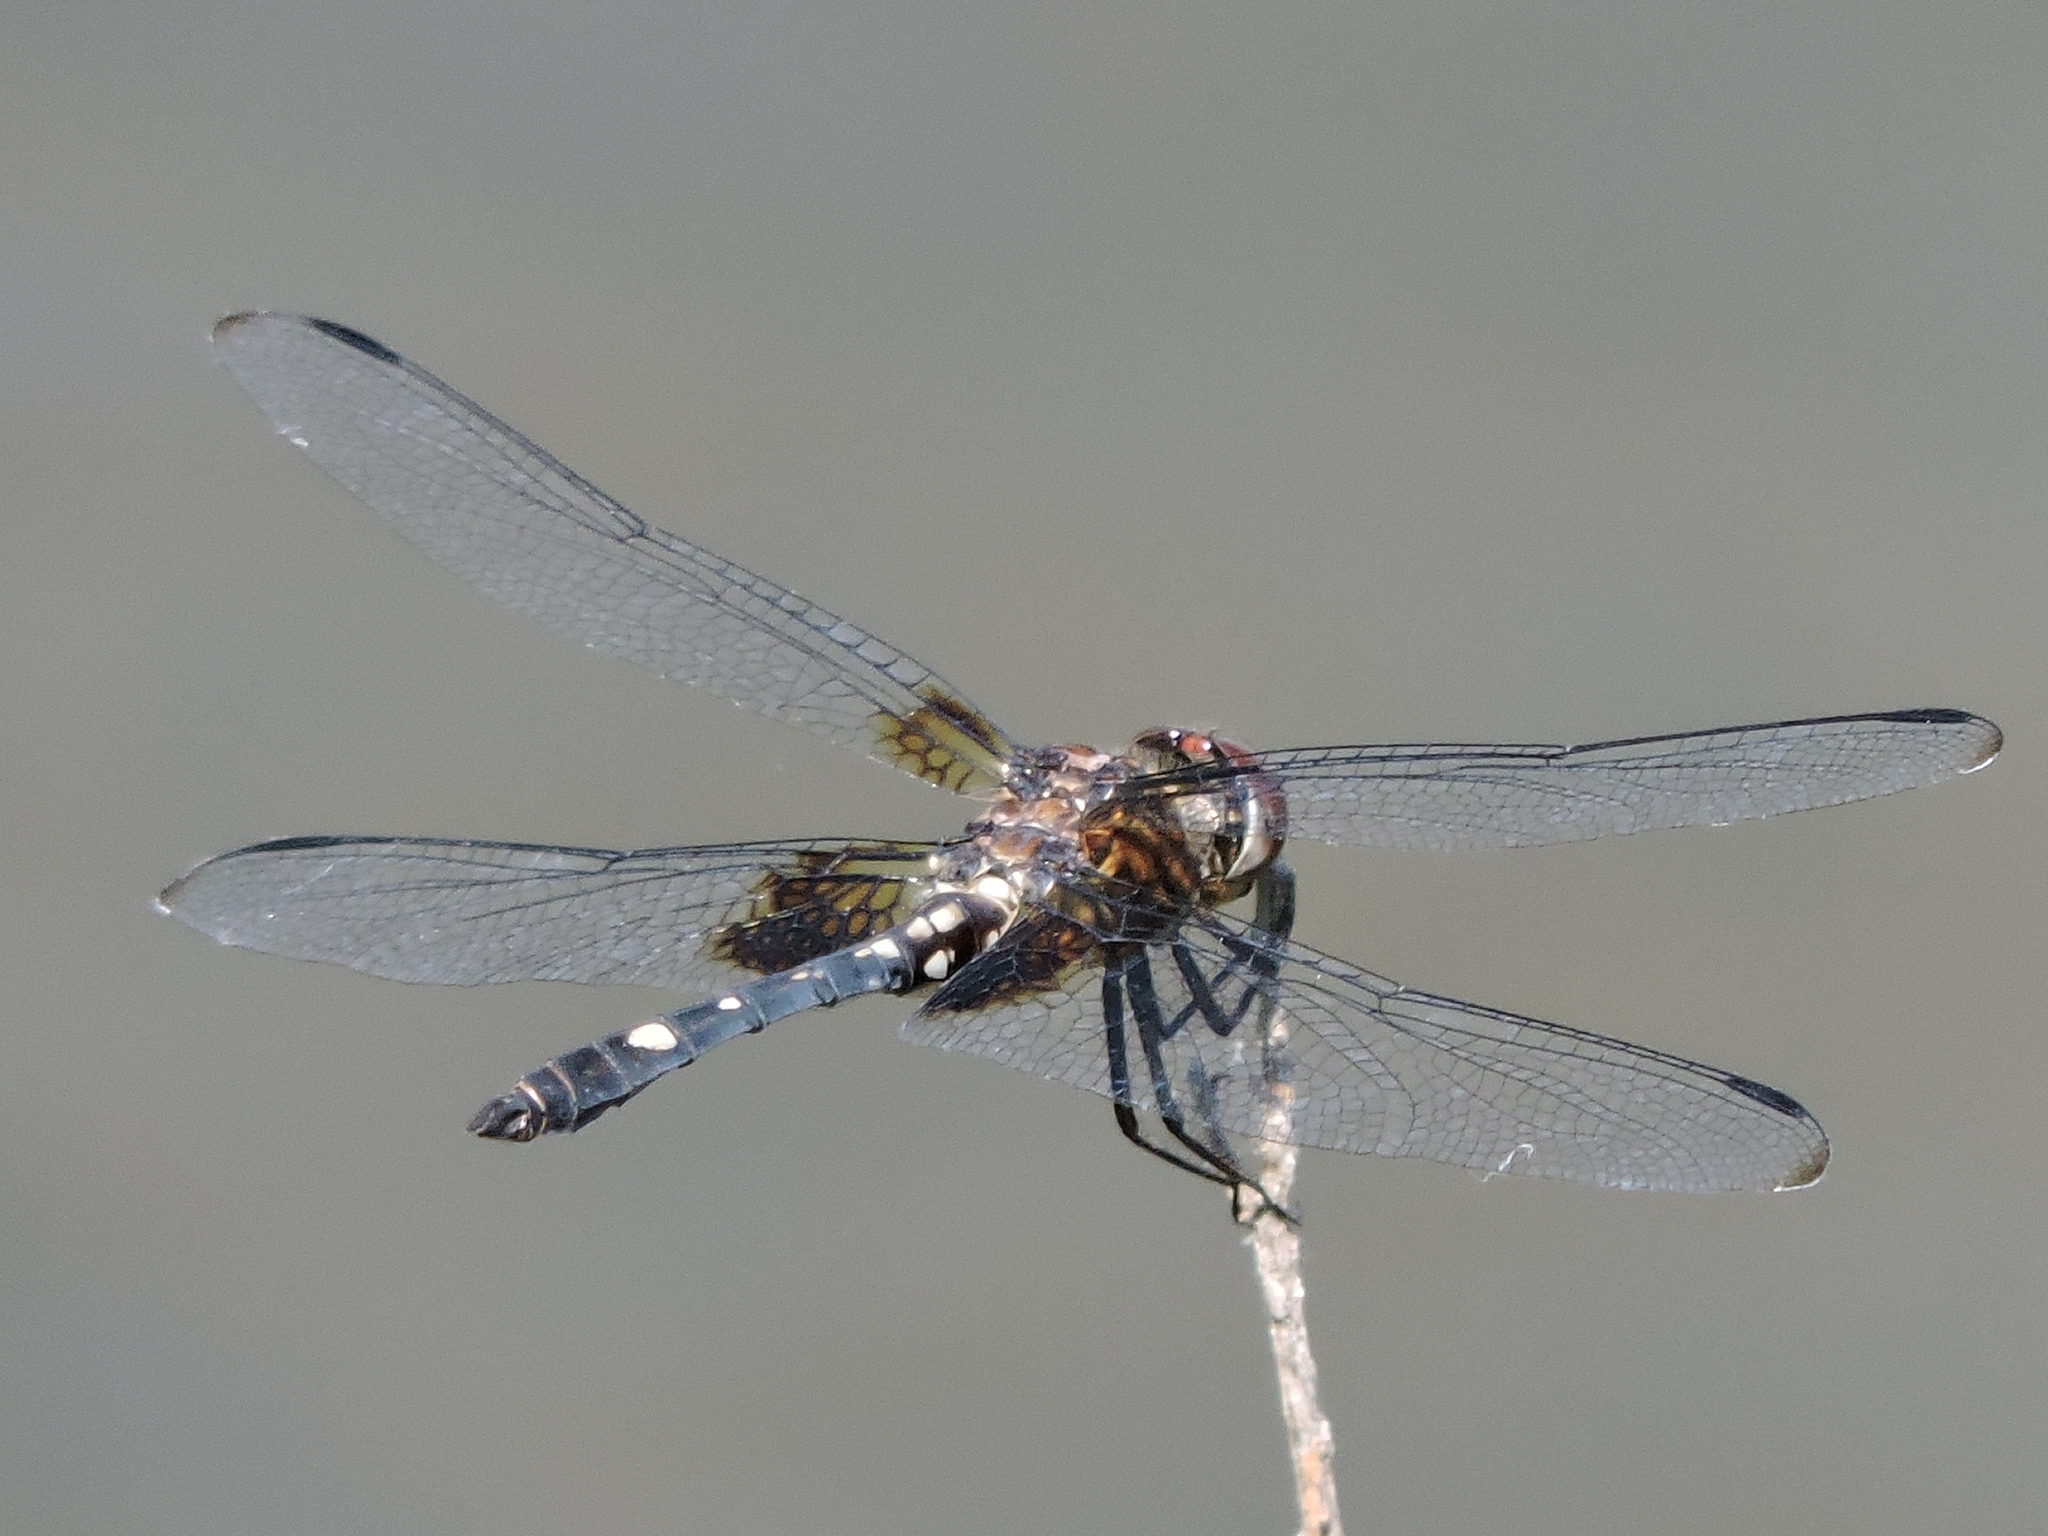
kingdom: Animalia
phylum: Arthropoda
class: Insecta
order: Odonata
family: Libellulidae
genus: Dythemis
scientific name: Dythemis fugax
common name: Checkered setwing
